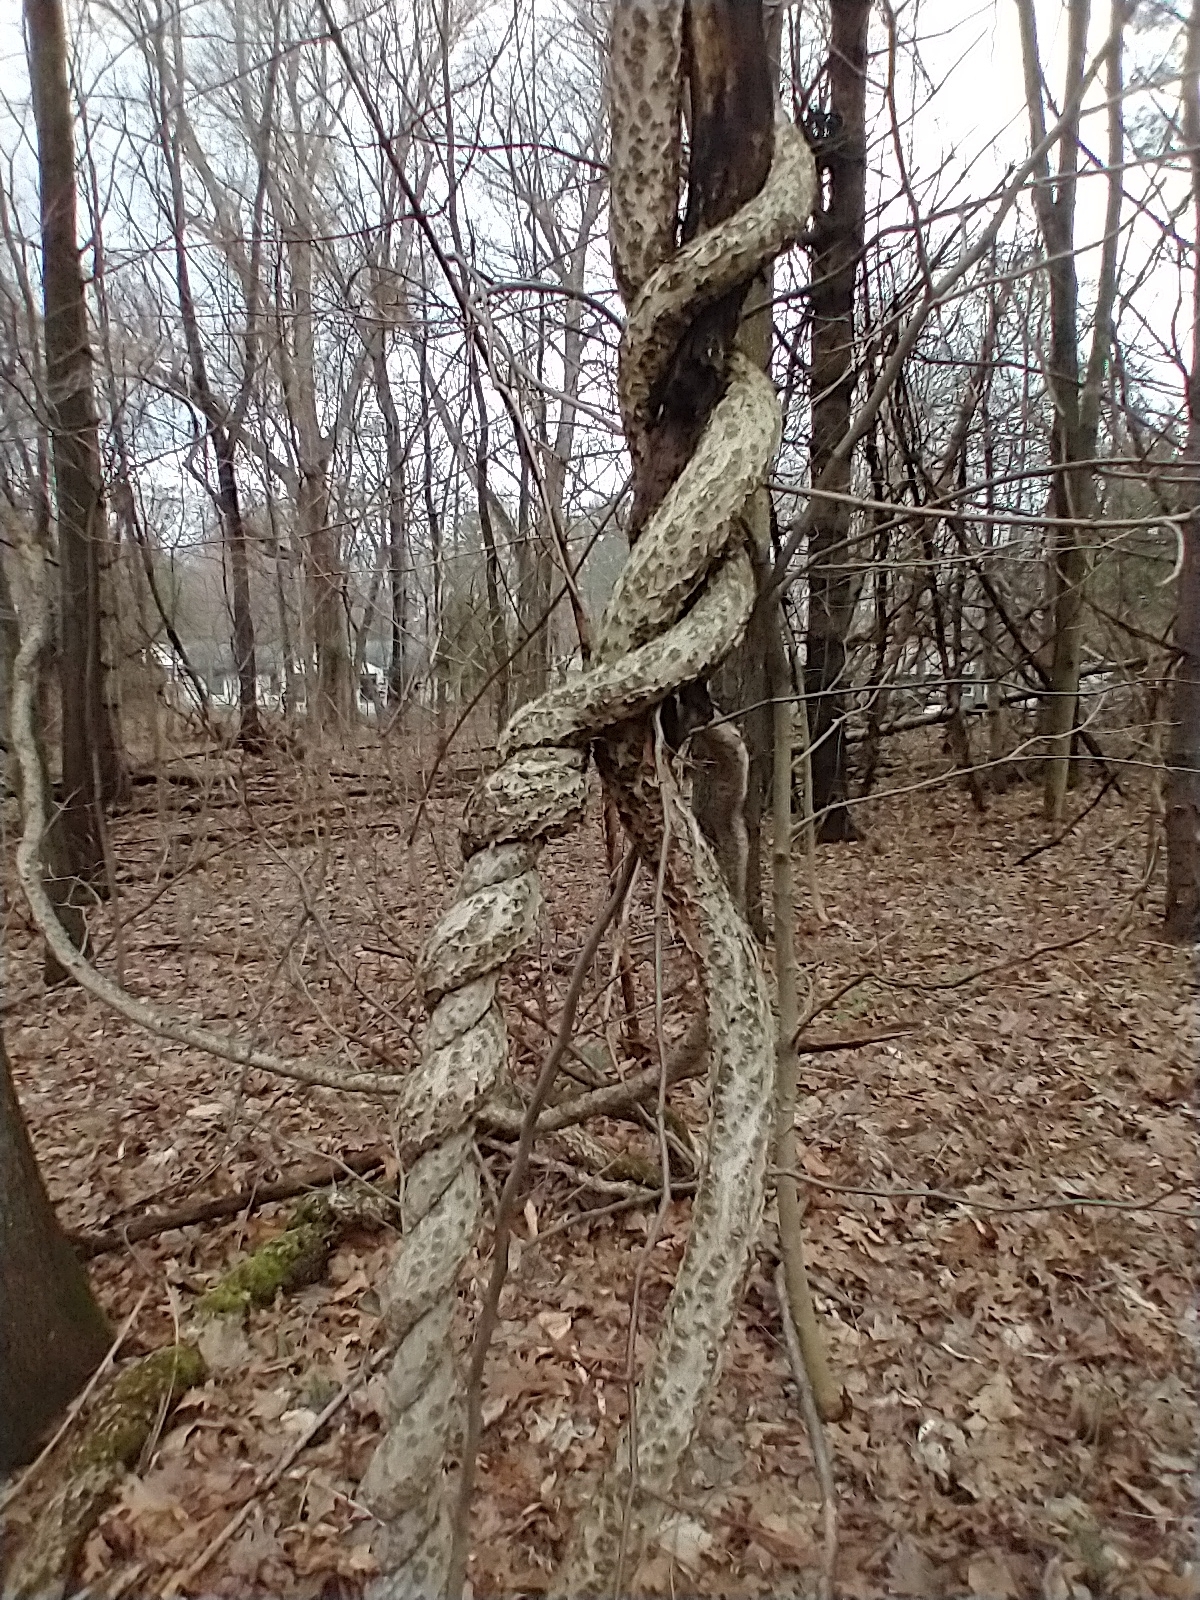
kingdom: Plantae
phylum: Tracheophyta
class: Magnoliopsida
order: Celastrales
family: Celastraceae
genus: Celastrus
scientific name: Celastrus orbiculatus
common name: Oriental bittersweet
